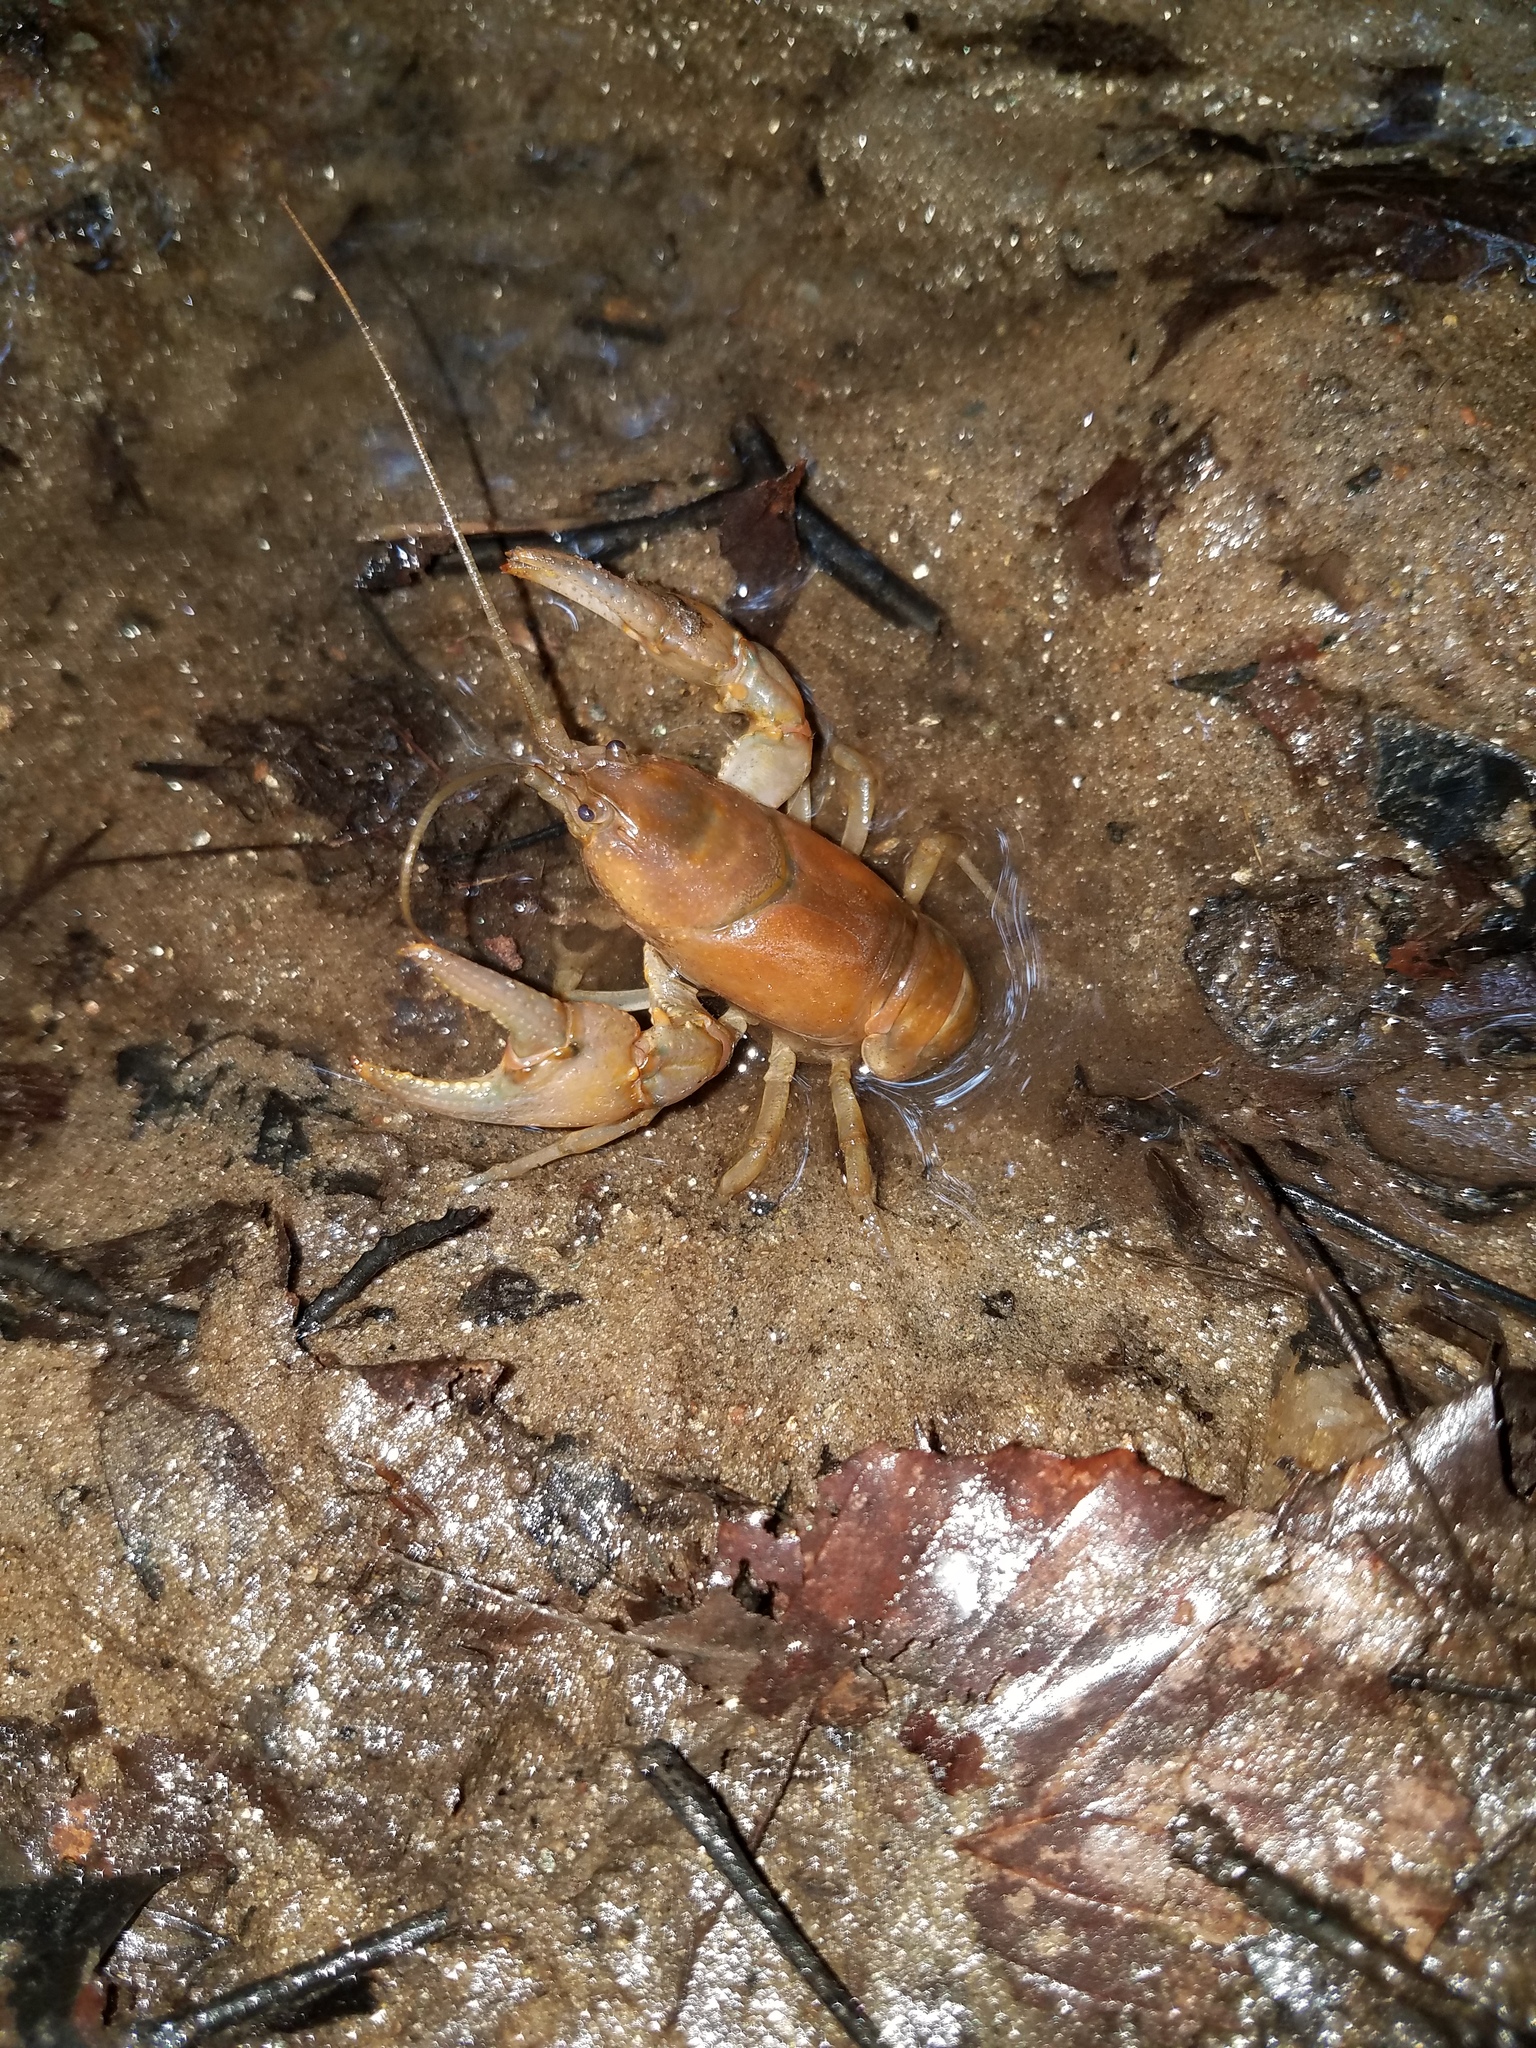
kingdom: Animalia
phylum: Arthropoda
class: Malacostraca
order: Decapoda
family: Cambaridae
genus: Cambarus
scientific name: Cambarus bartonii
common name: Appalachian brook crayfish
